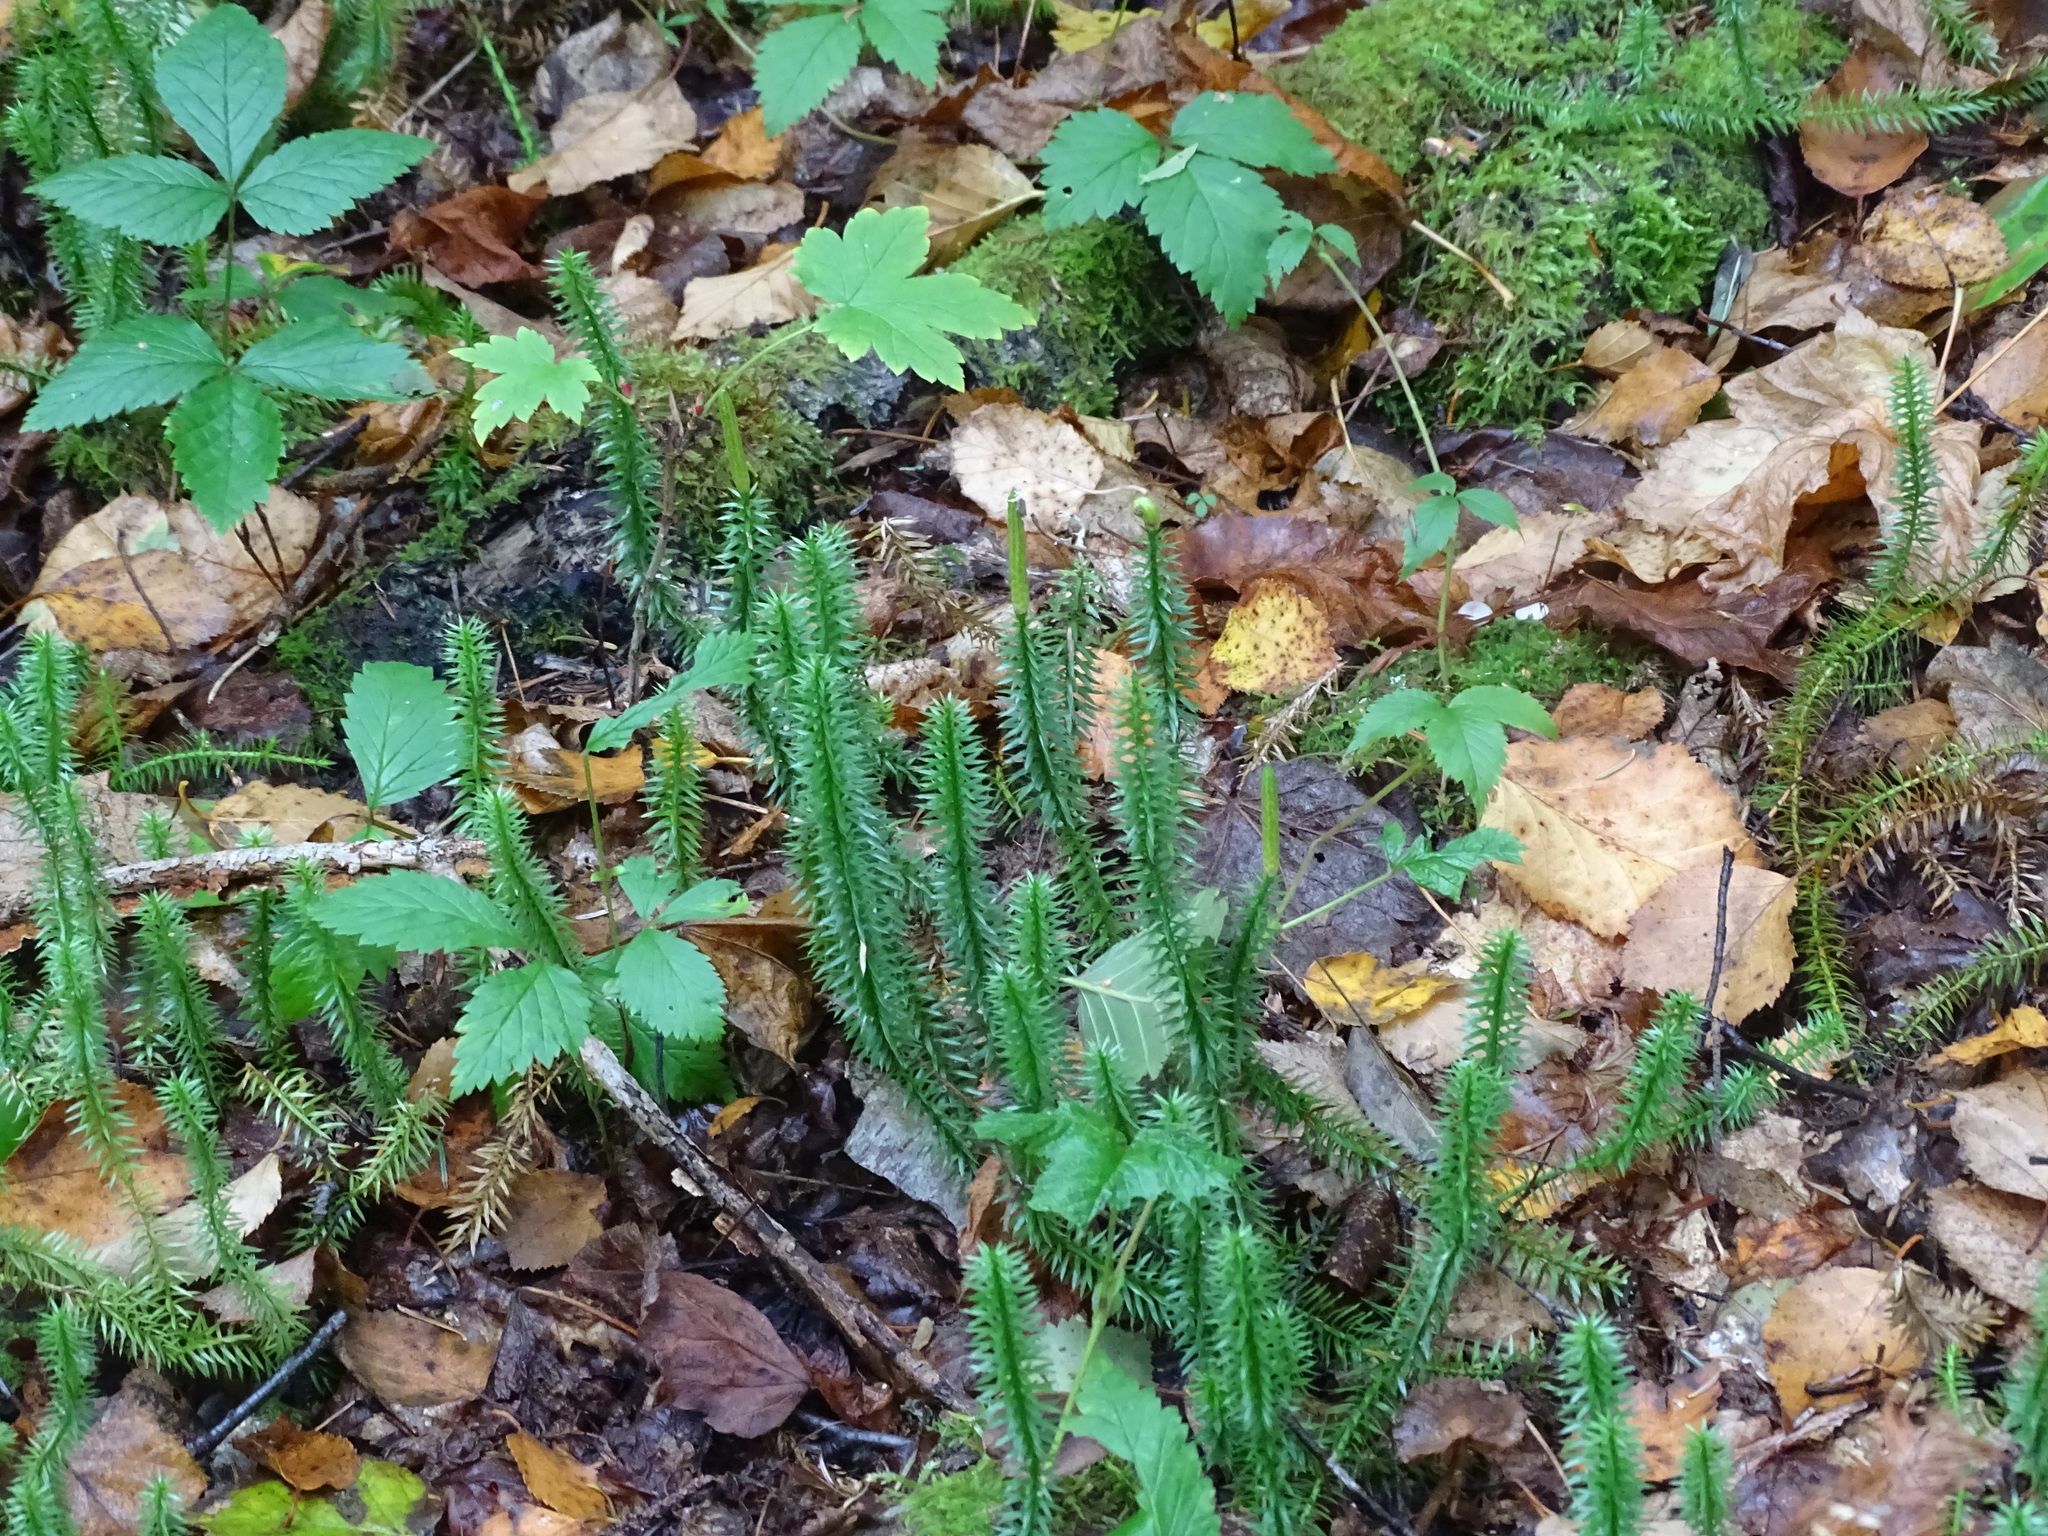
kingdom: Plantae
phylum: Tracheophyta
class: Lycopodiopsida
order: Lycopodiales
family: Lycopodiaceae
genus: Spinulum
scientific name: Spinulum annotinum
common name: Interrupted club-moss
